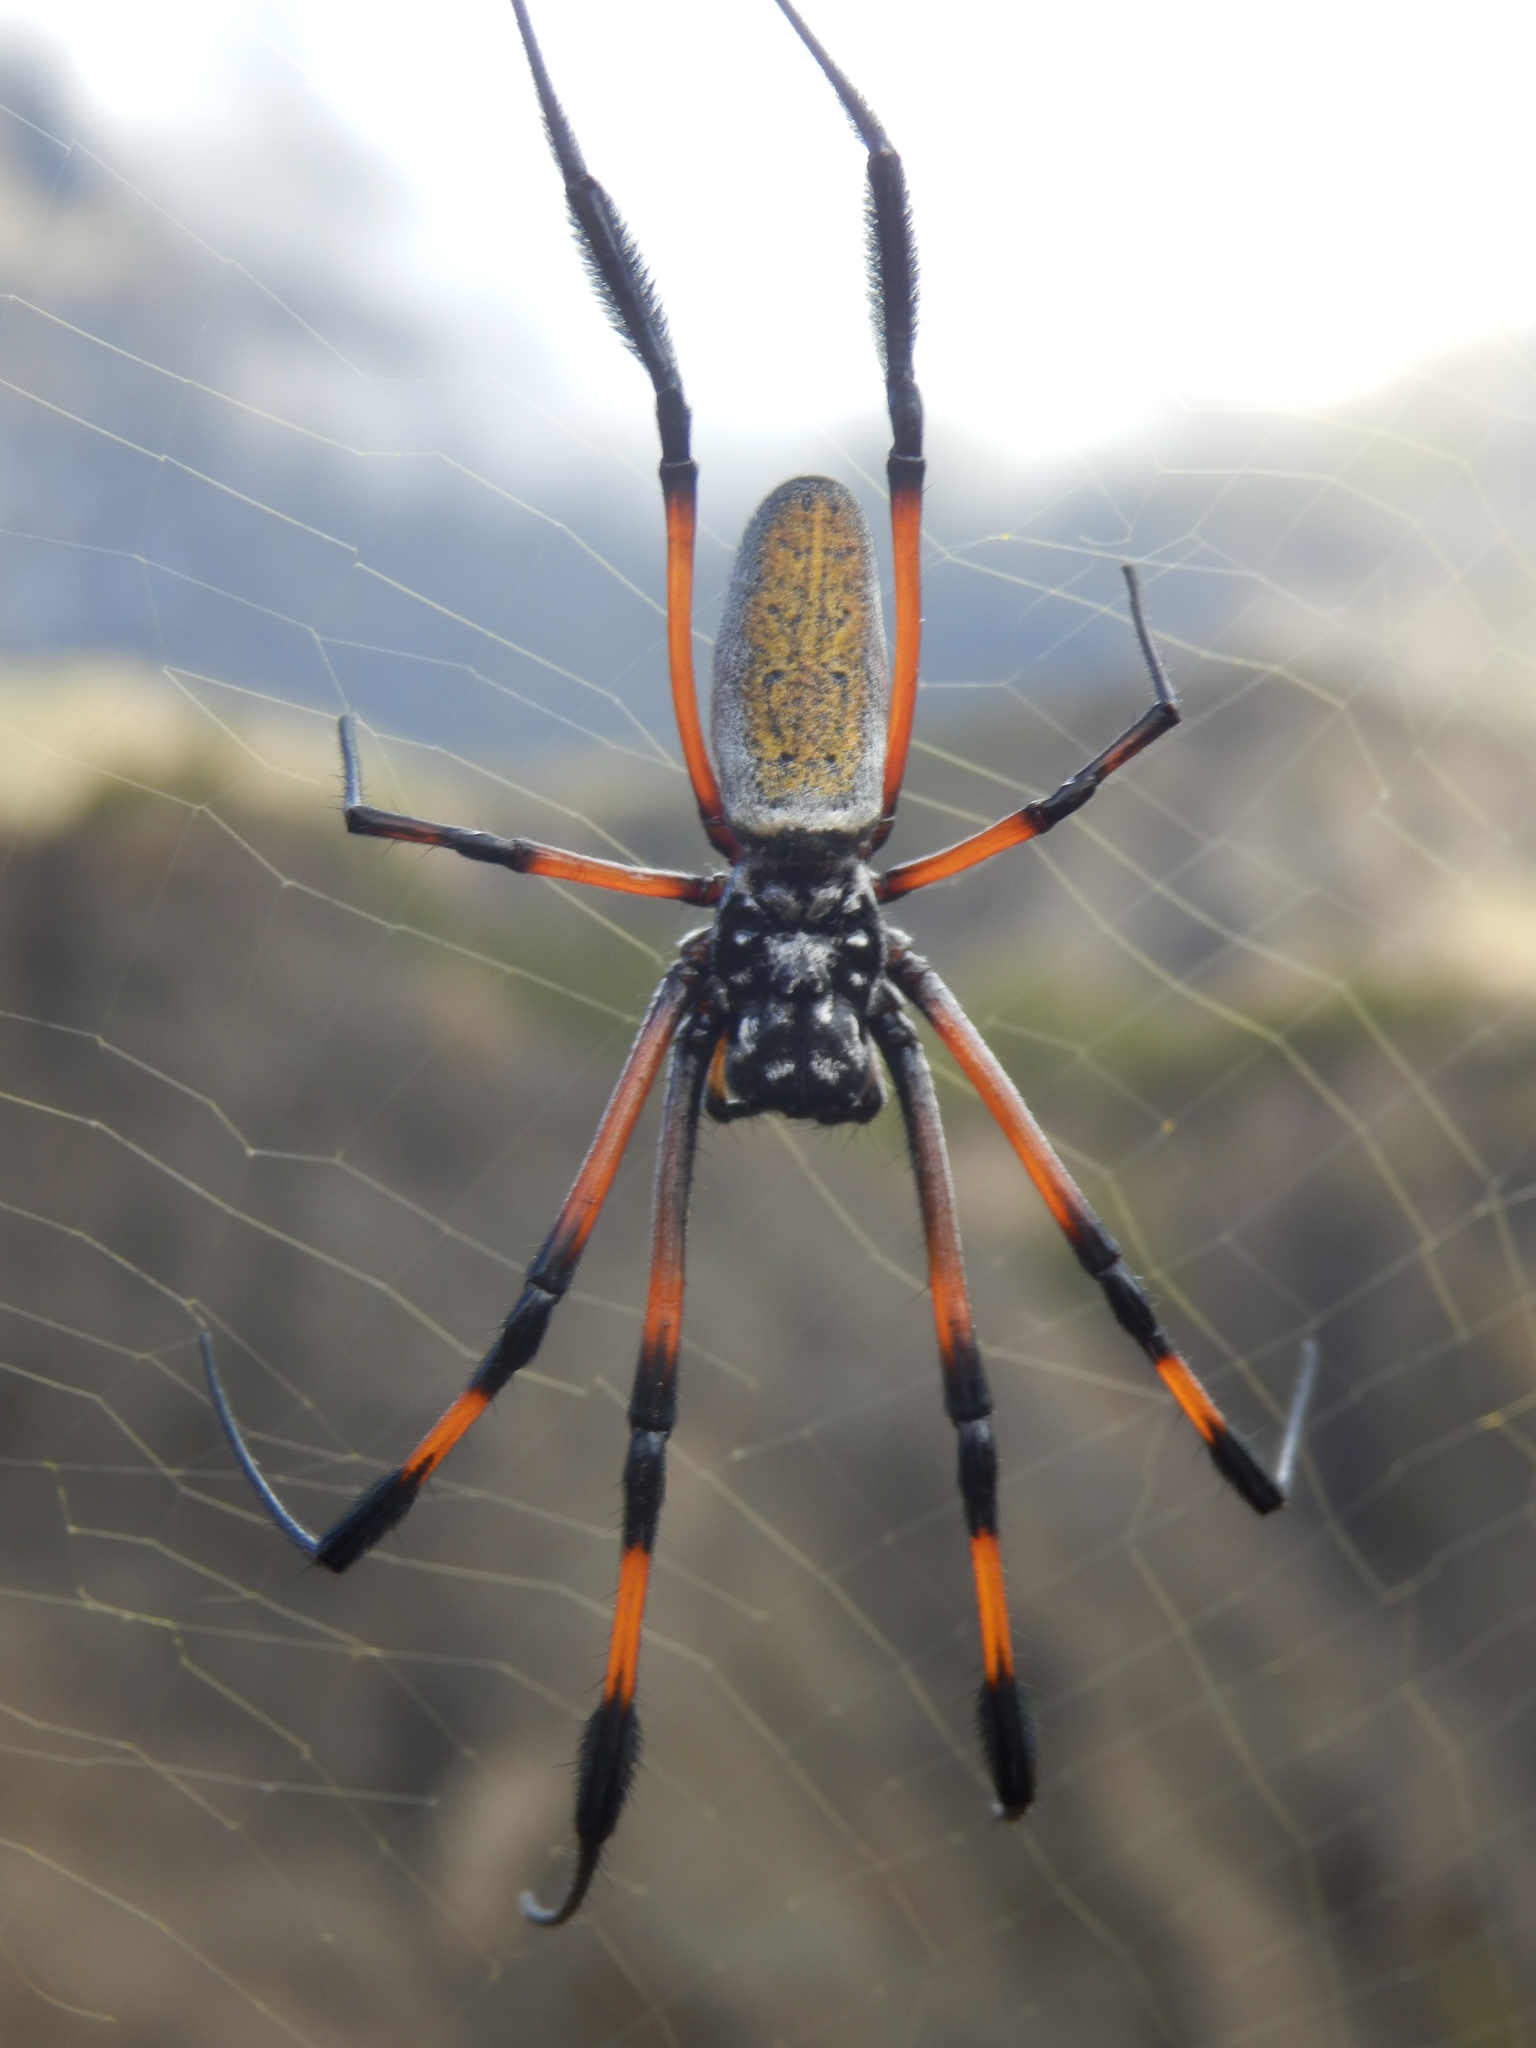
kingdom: Animalia
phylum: Arthropoda
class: Arachnida
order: Araneae
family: Araneidae
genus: Trichonephila
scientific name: Trichonephila inaurata
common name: Red-legged golden orb weaver
